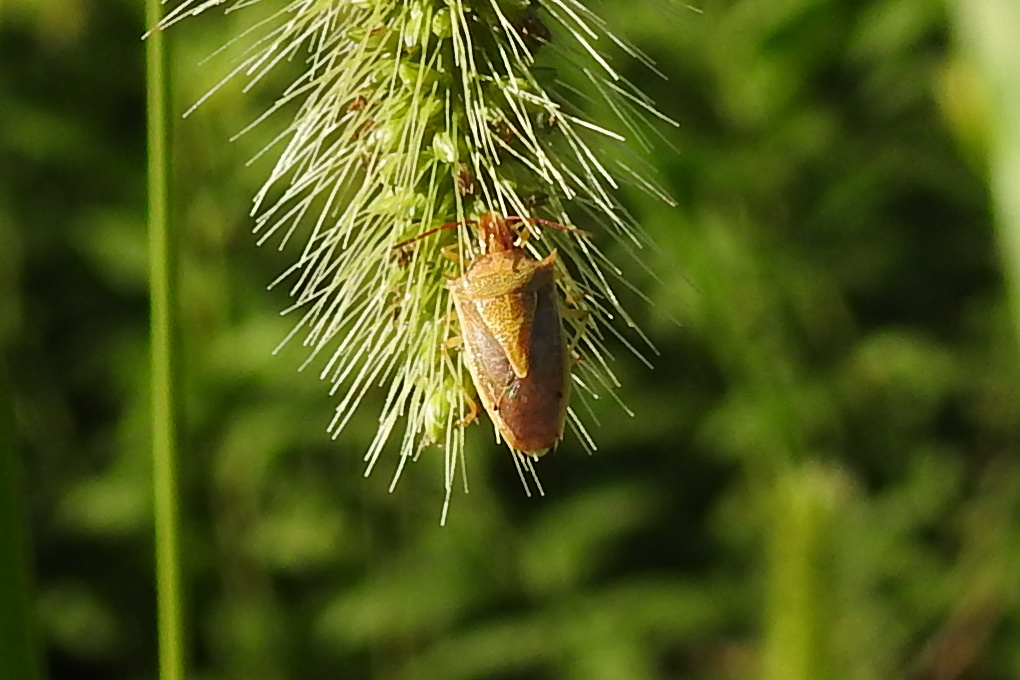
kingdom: Animalia
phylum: Arthropoda
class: Insecta
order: Hemiptera
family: Pentatomidae
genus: Oebalus
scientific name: Oebalus pugnax
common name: Rice stink bug
